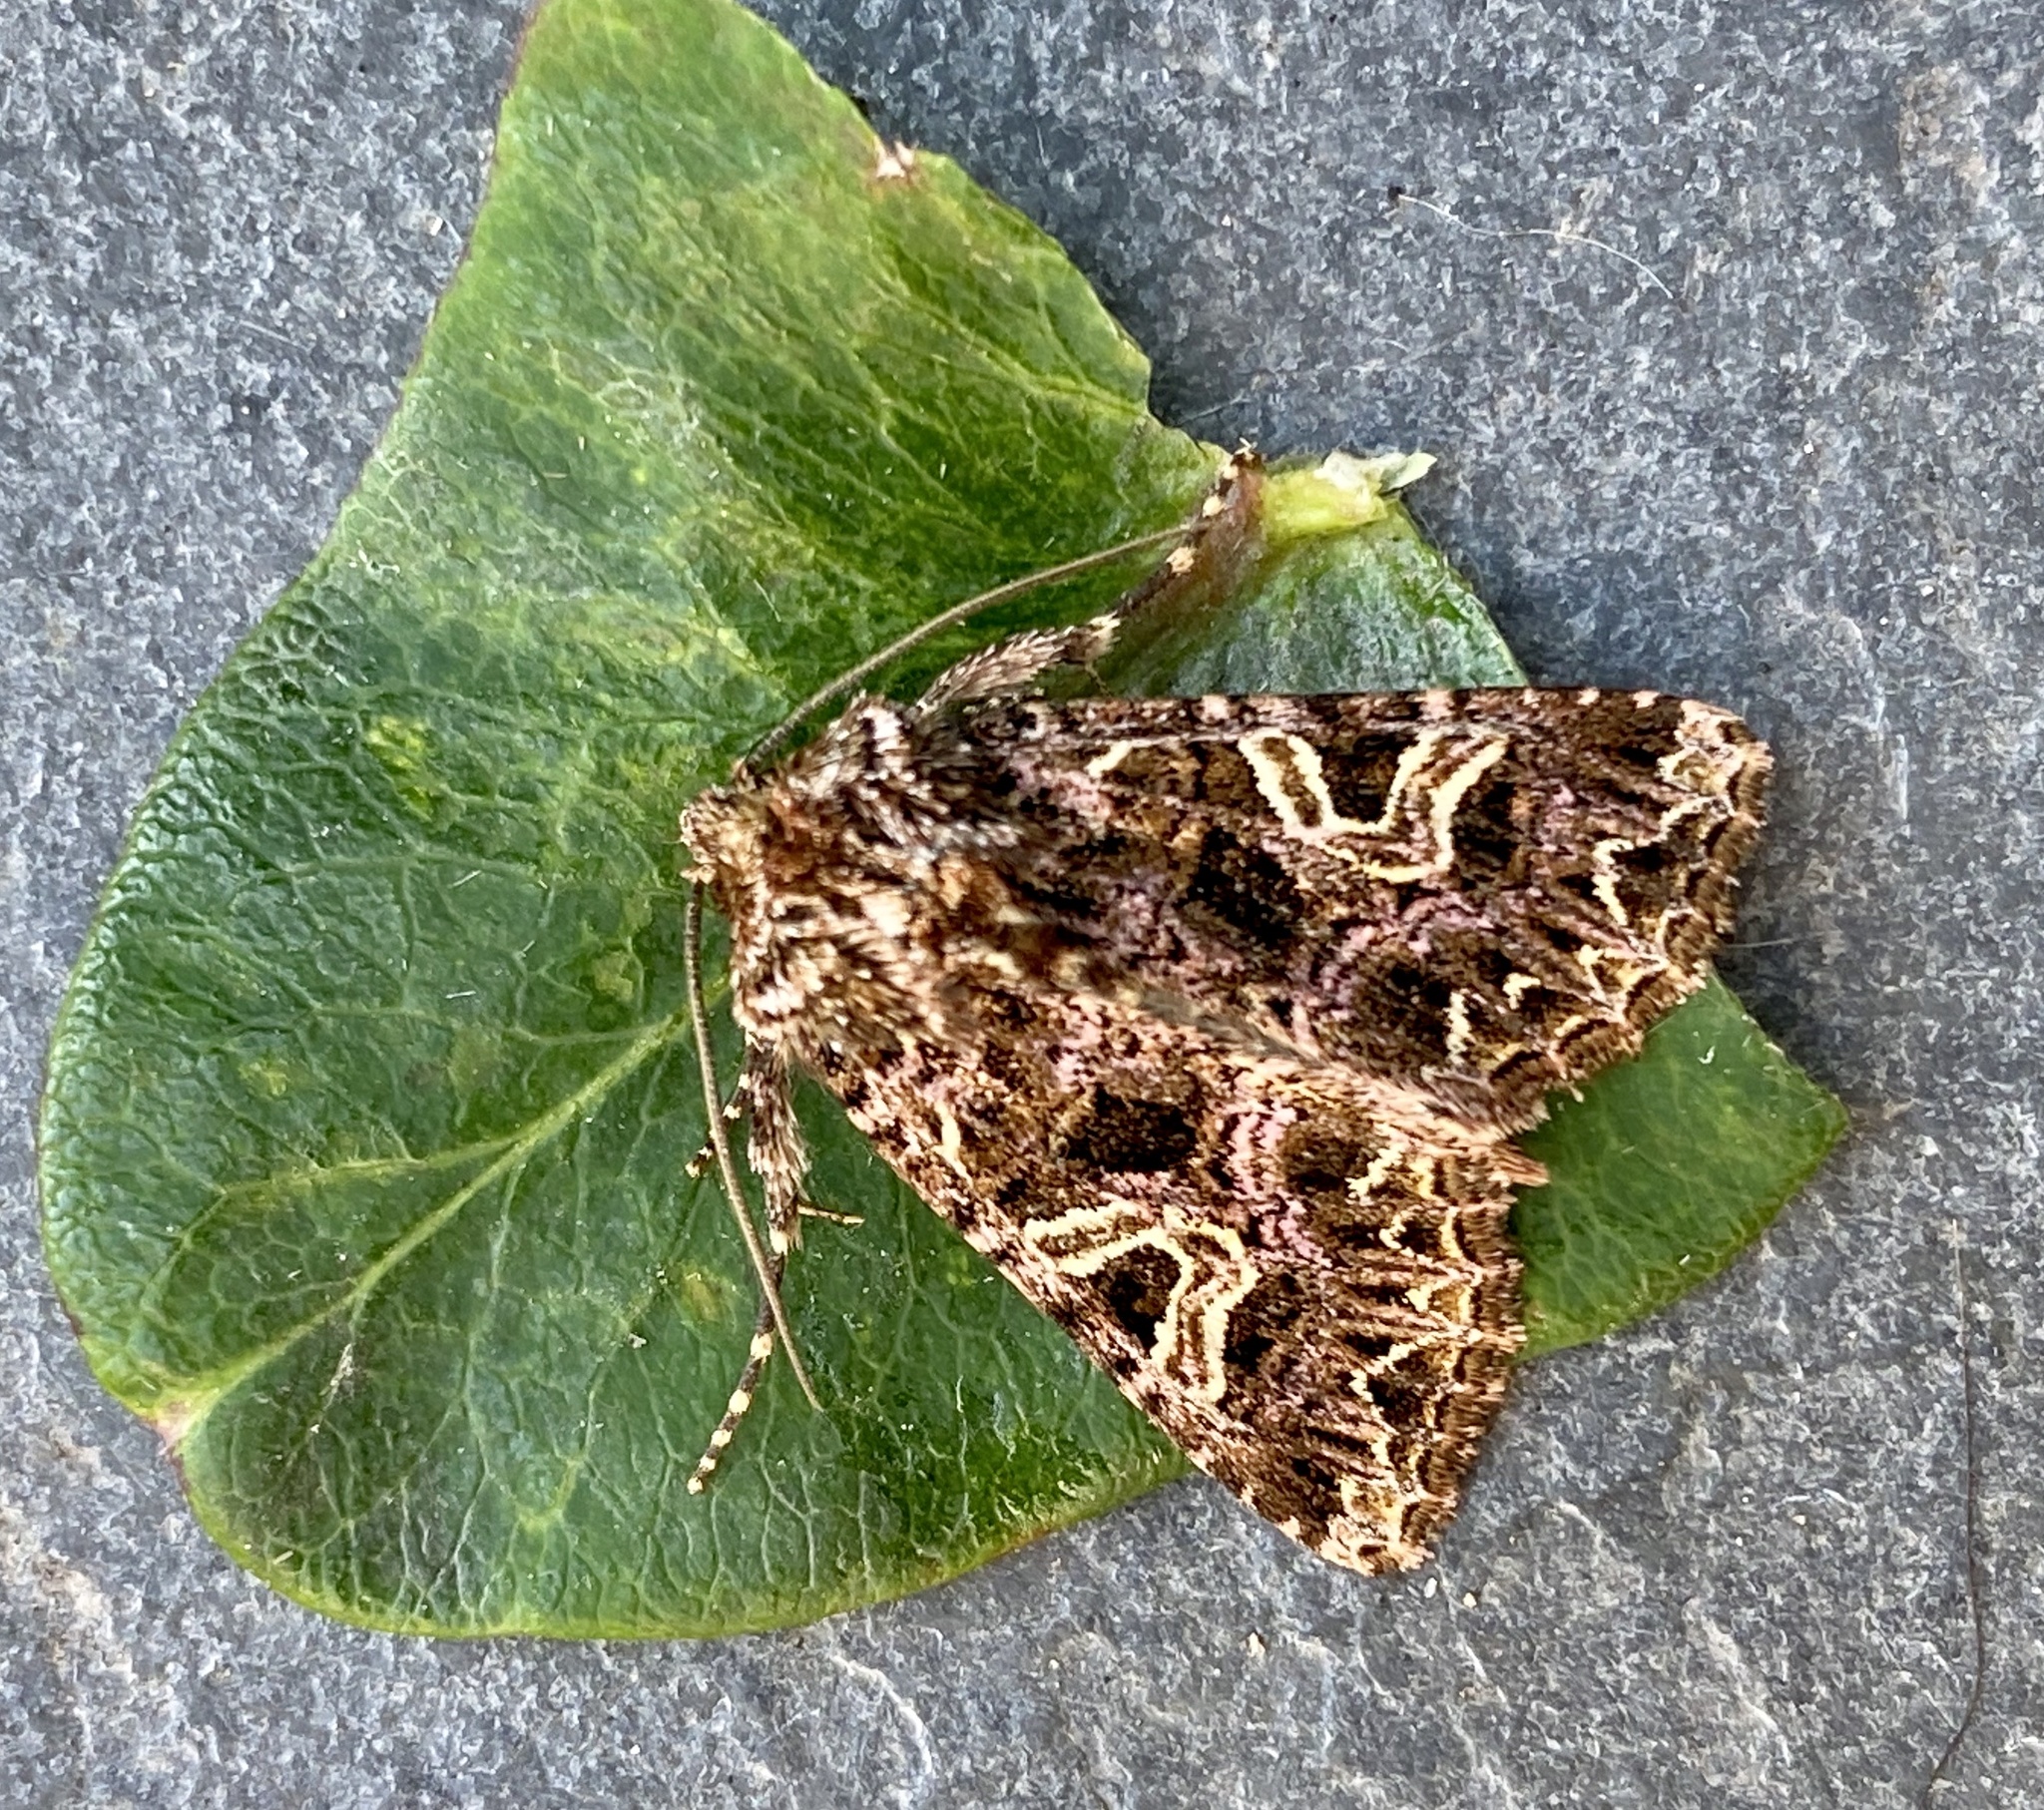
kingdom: Animalia
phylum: Arthropoda
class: Insecta
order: Lepidoptera
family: Noctuidae
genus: Sideridis
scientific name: Sideridis rivularis
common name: Campion
